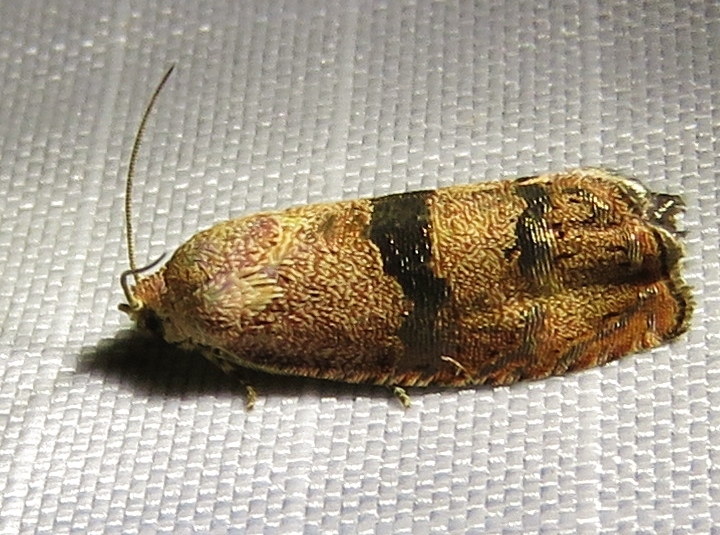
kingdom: Animalia
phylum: Arthropoda
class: Insecta
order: Lepidoptera
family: Tortricidae
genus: Cydia
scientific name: Cydia latiferreana
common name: Filbertworm moth
